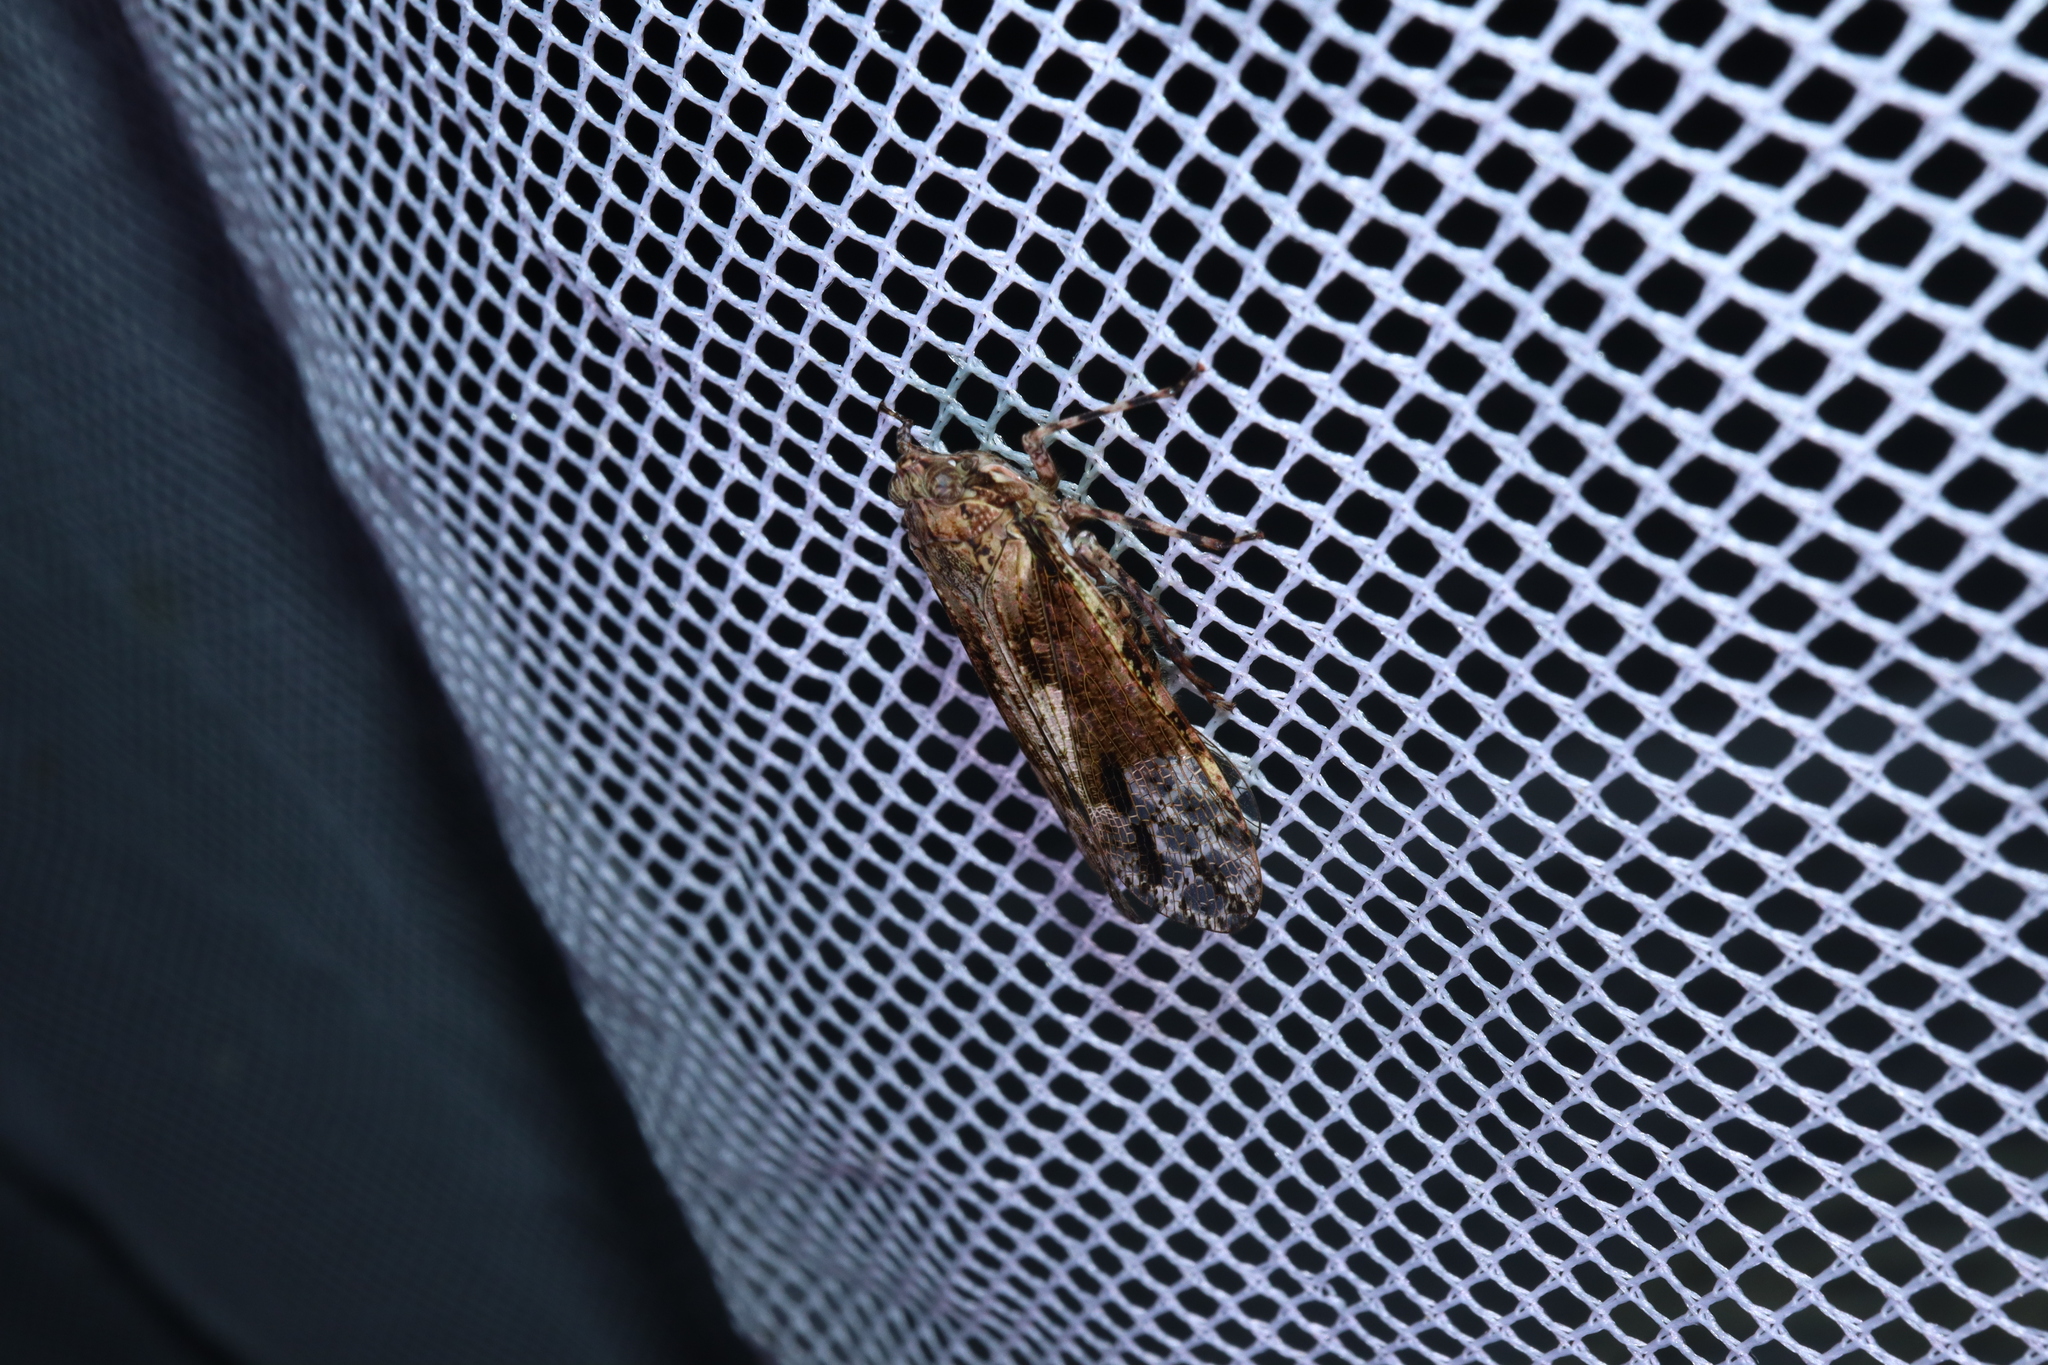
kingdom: Animalia
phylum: Arthropoda
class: Insecta
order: Hemiptera
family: Fulgoridae
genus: Erilla
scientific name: Erilla turneri
